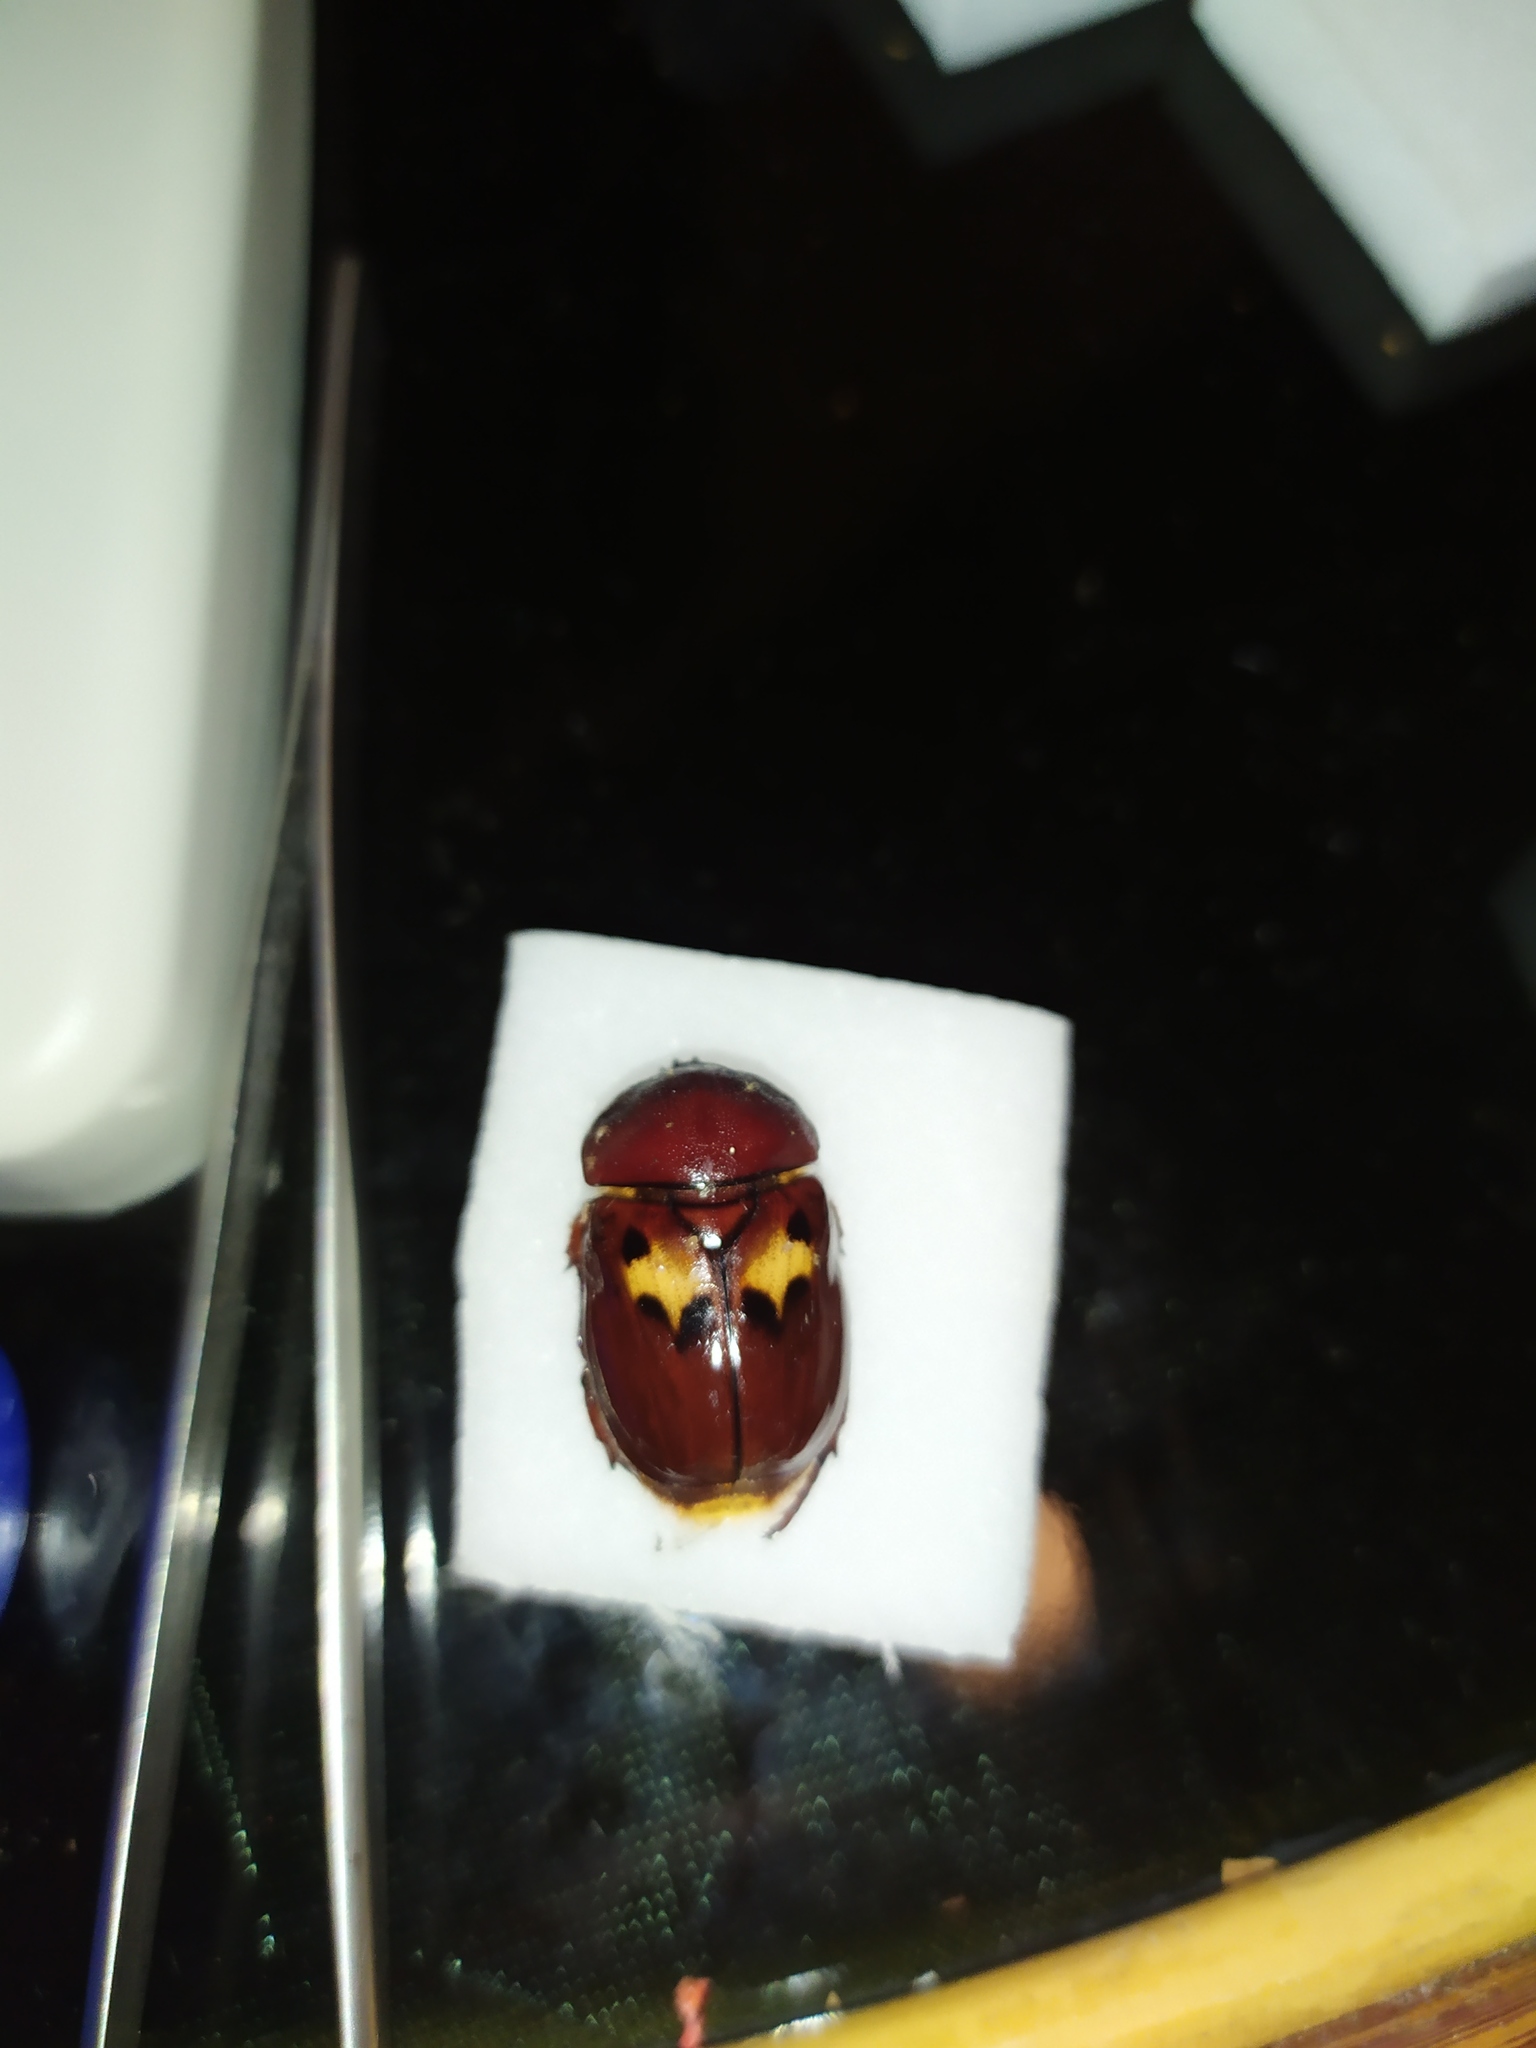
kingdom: Animalia
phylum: Arthropoda
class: Insecta
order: Coleoptera
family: Scarabaeidae
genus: Parastasia
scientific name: Parastasia moseri
